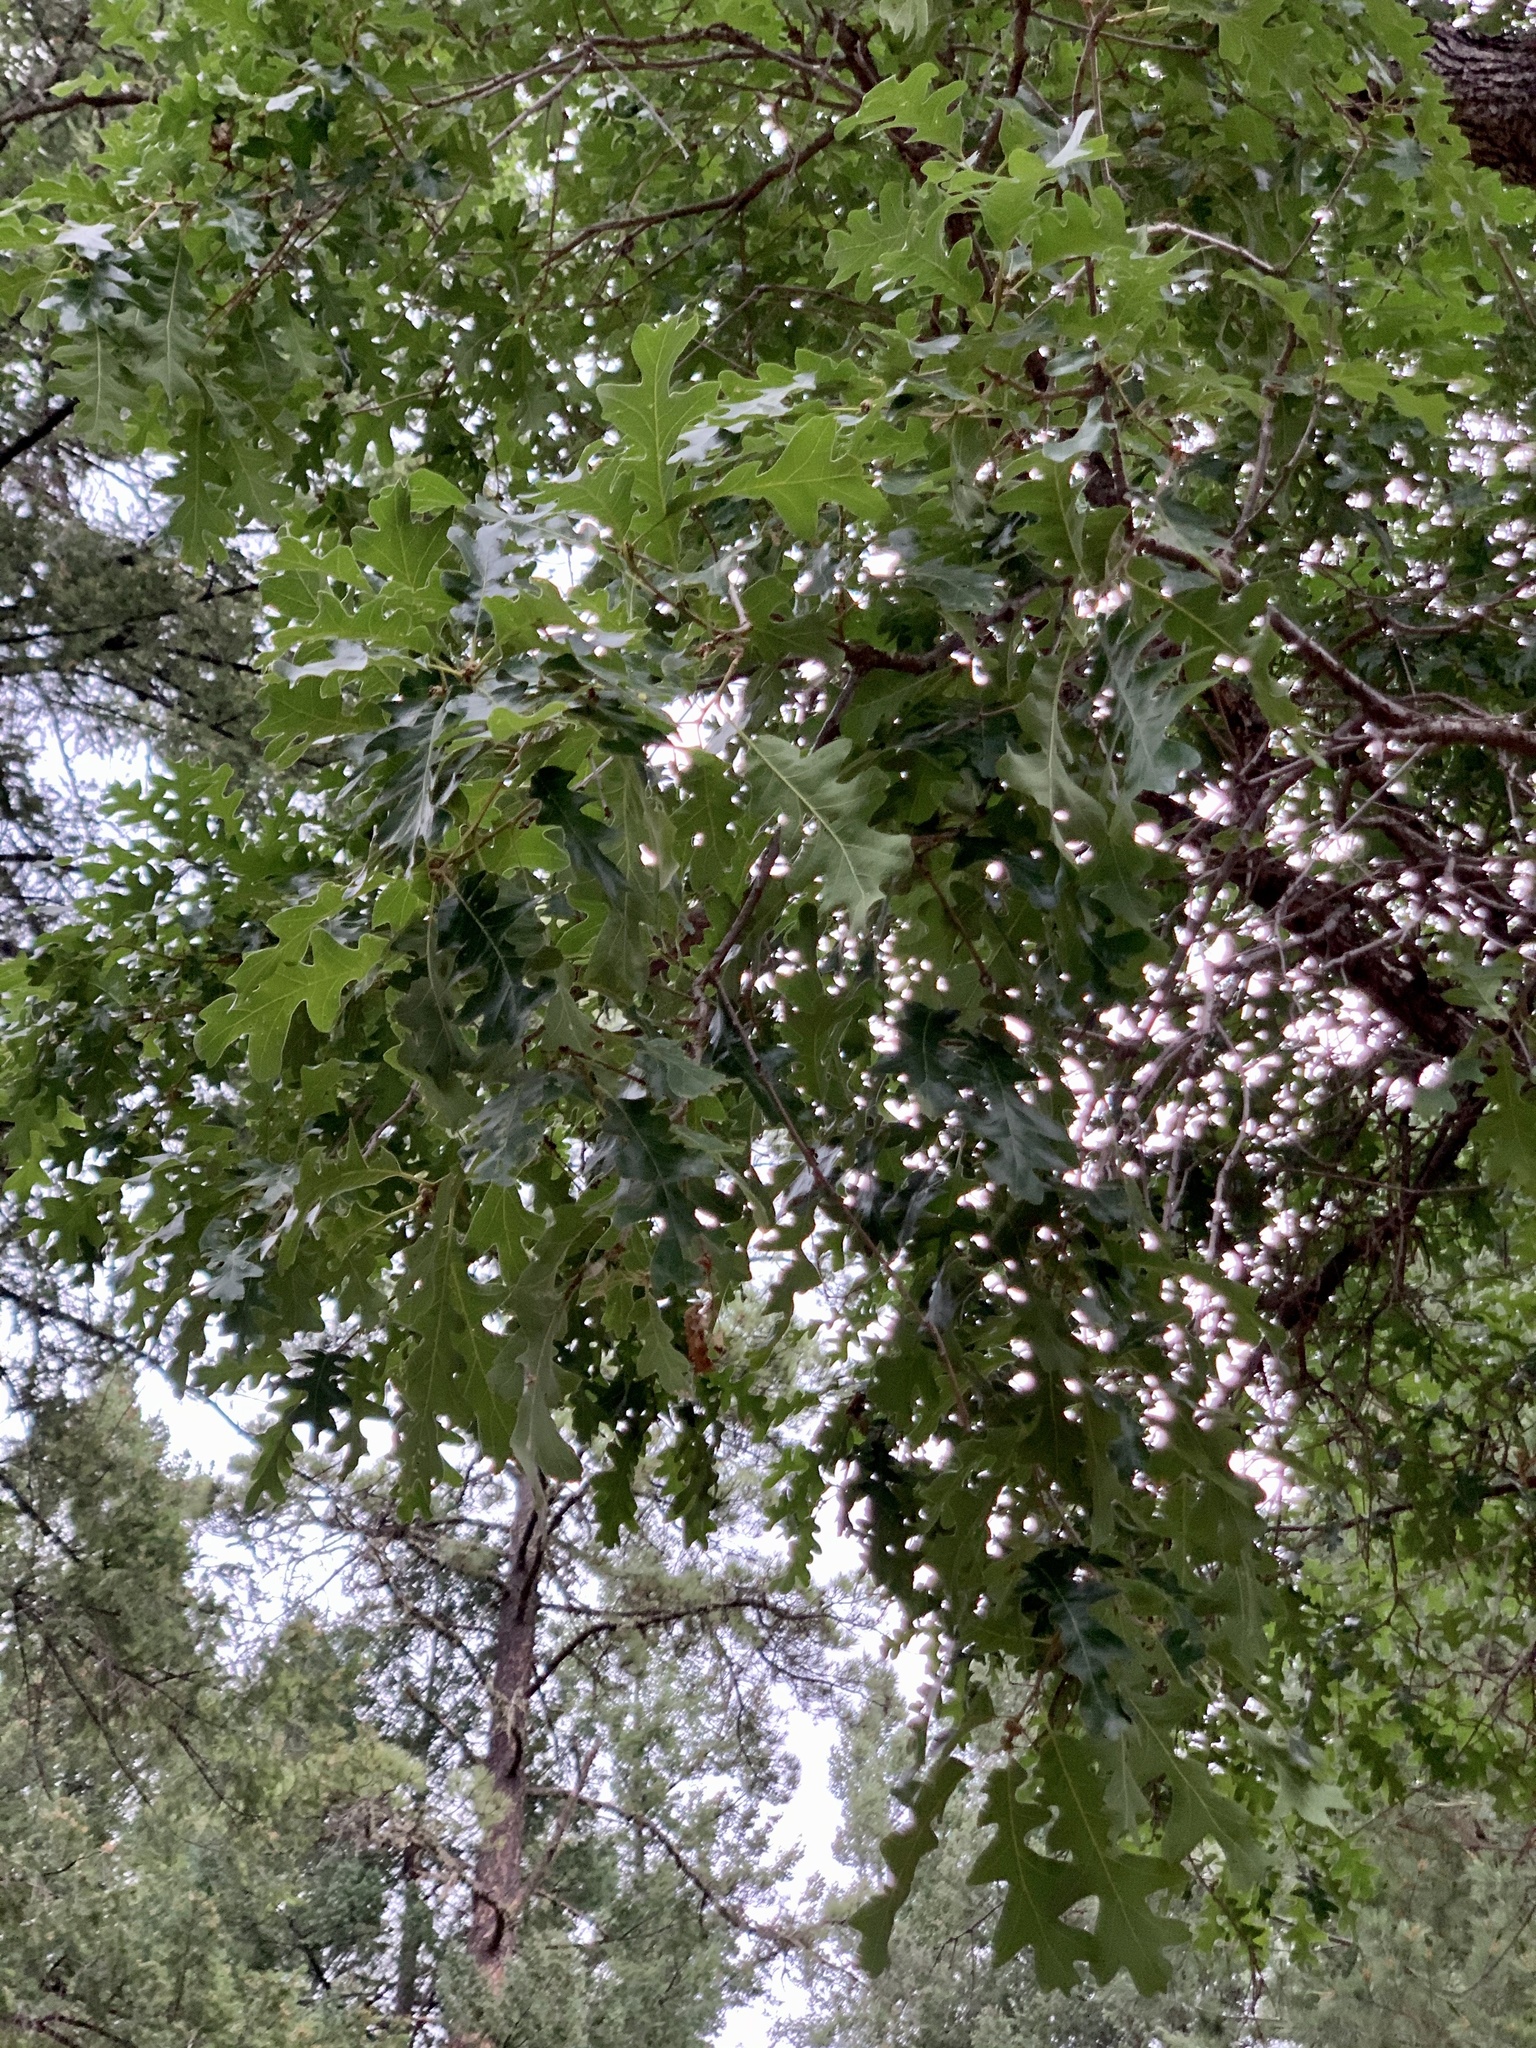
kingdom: Plantae
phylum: Tracheophyta
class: Magnoliopsida
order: Fagales
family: Fagaceae
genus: Quercus
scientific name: Quercus gambelii
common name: Gambel oak
